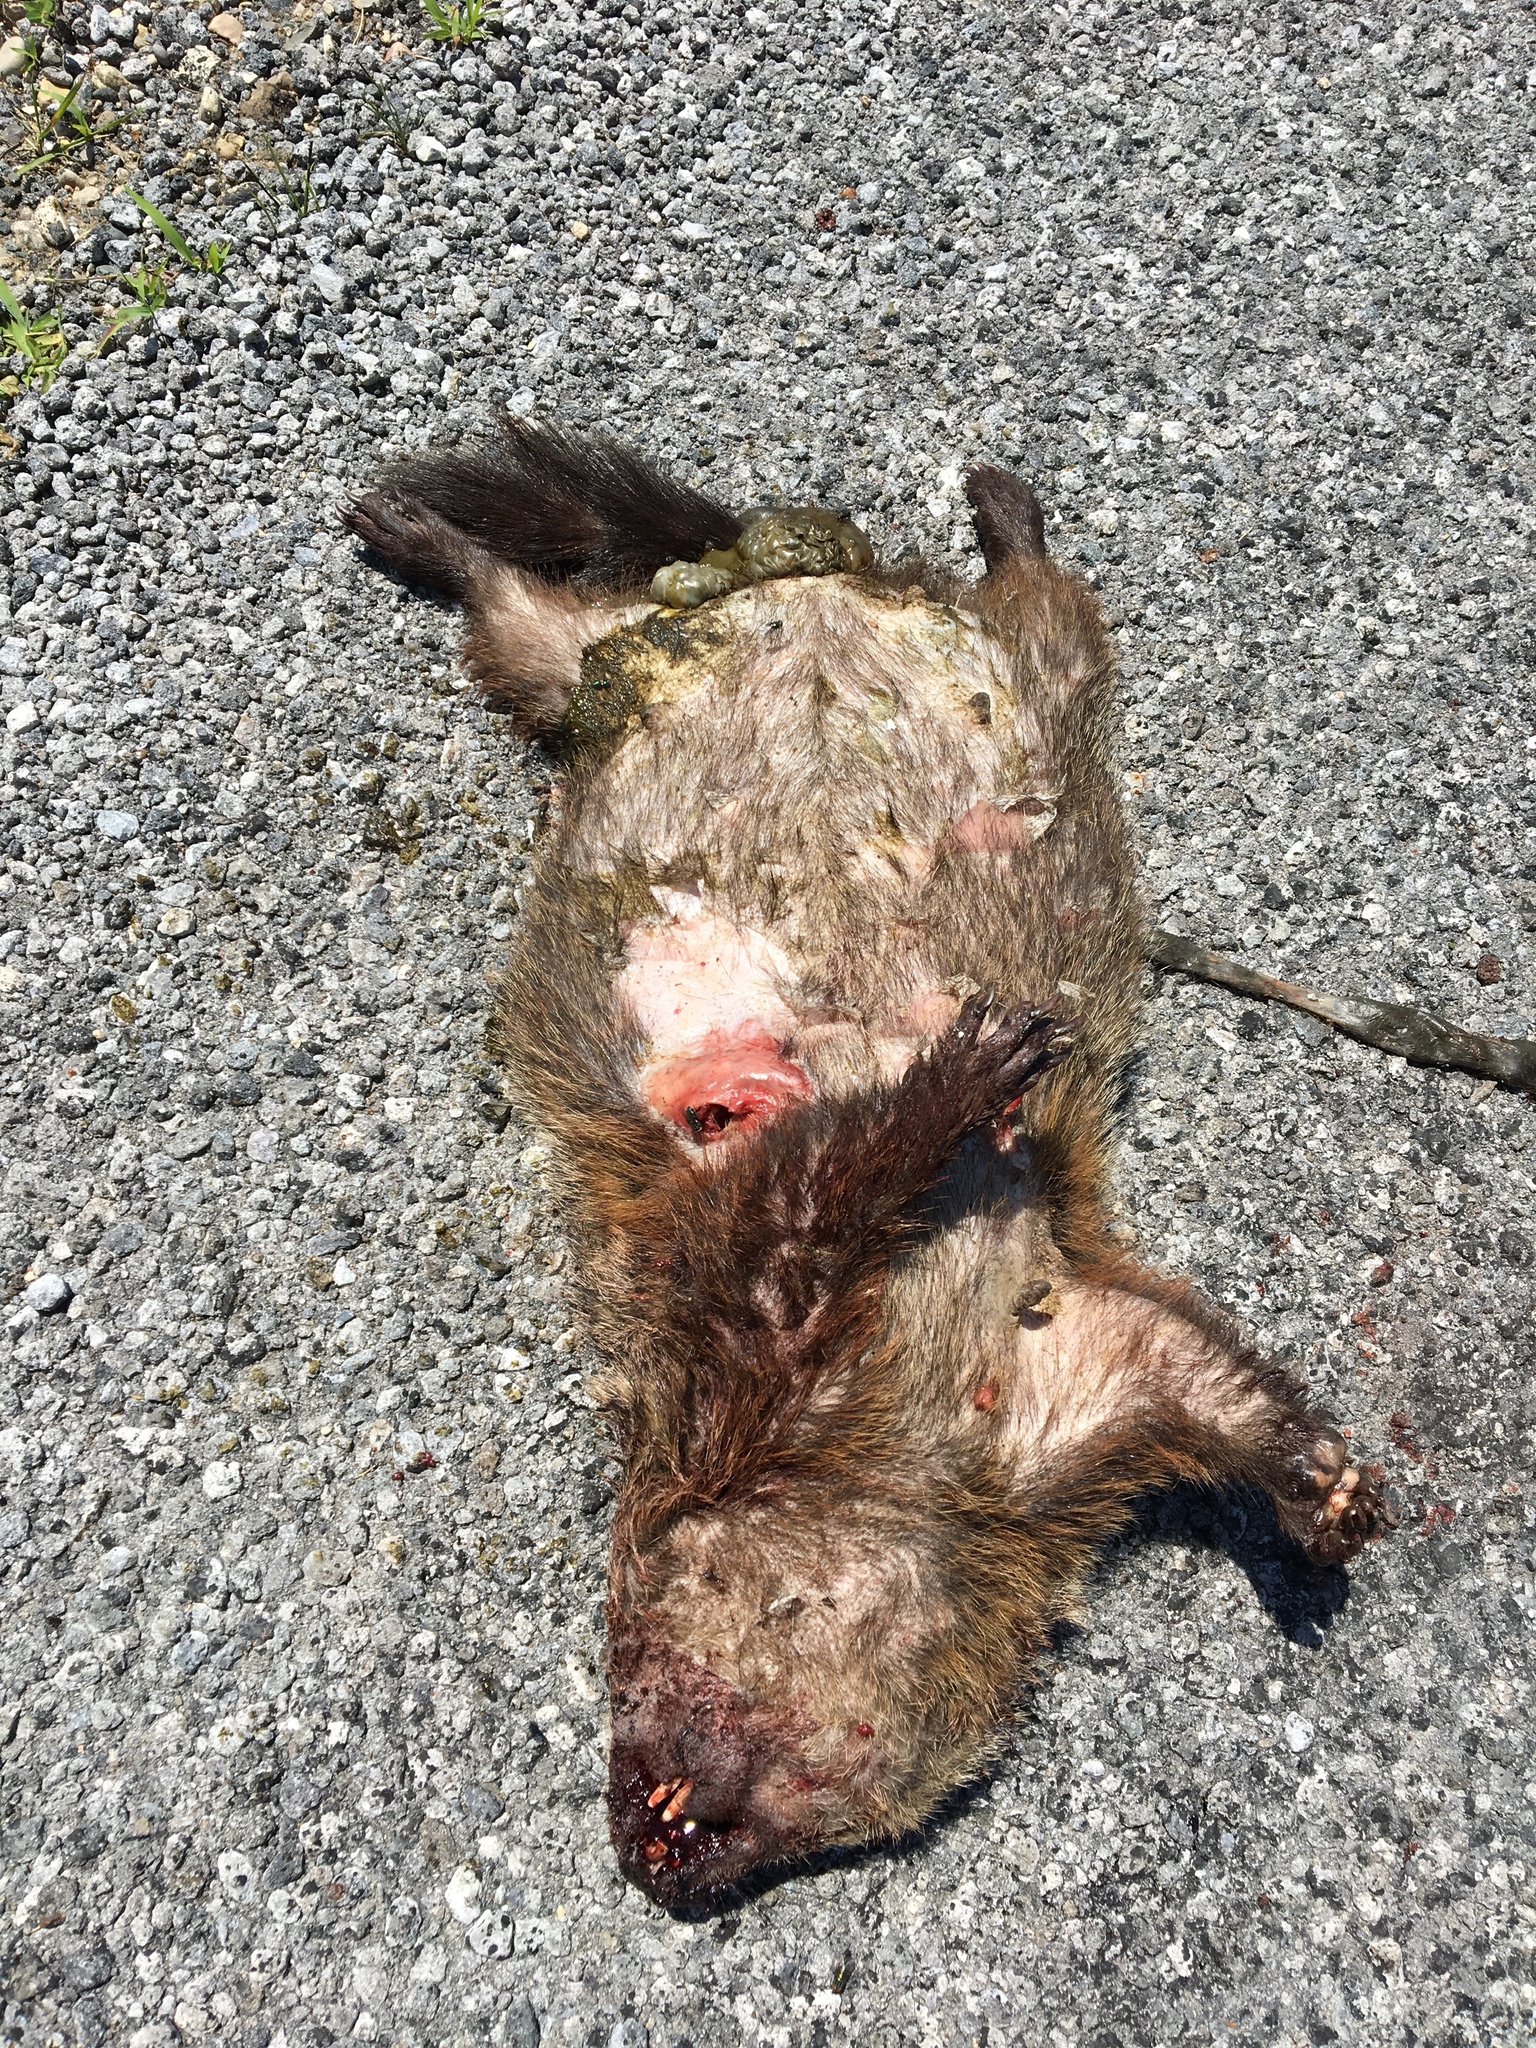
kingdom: Animalia
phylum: Chordata
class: Mammalia
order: Rodentia
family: Sciuridae
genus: Marmota
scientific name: Marmota monax
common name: Groundhog
